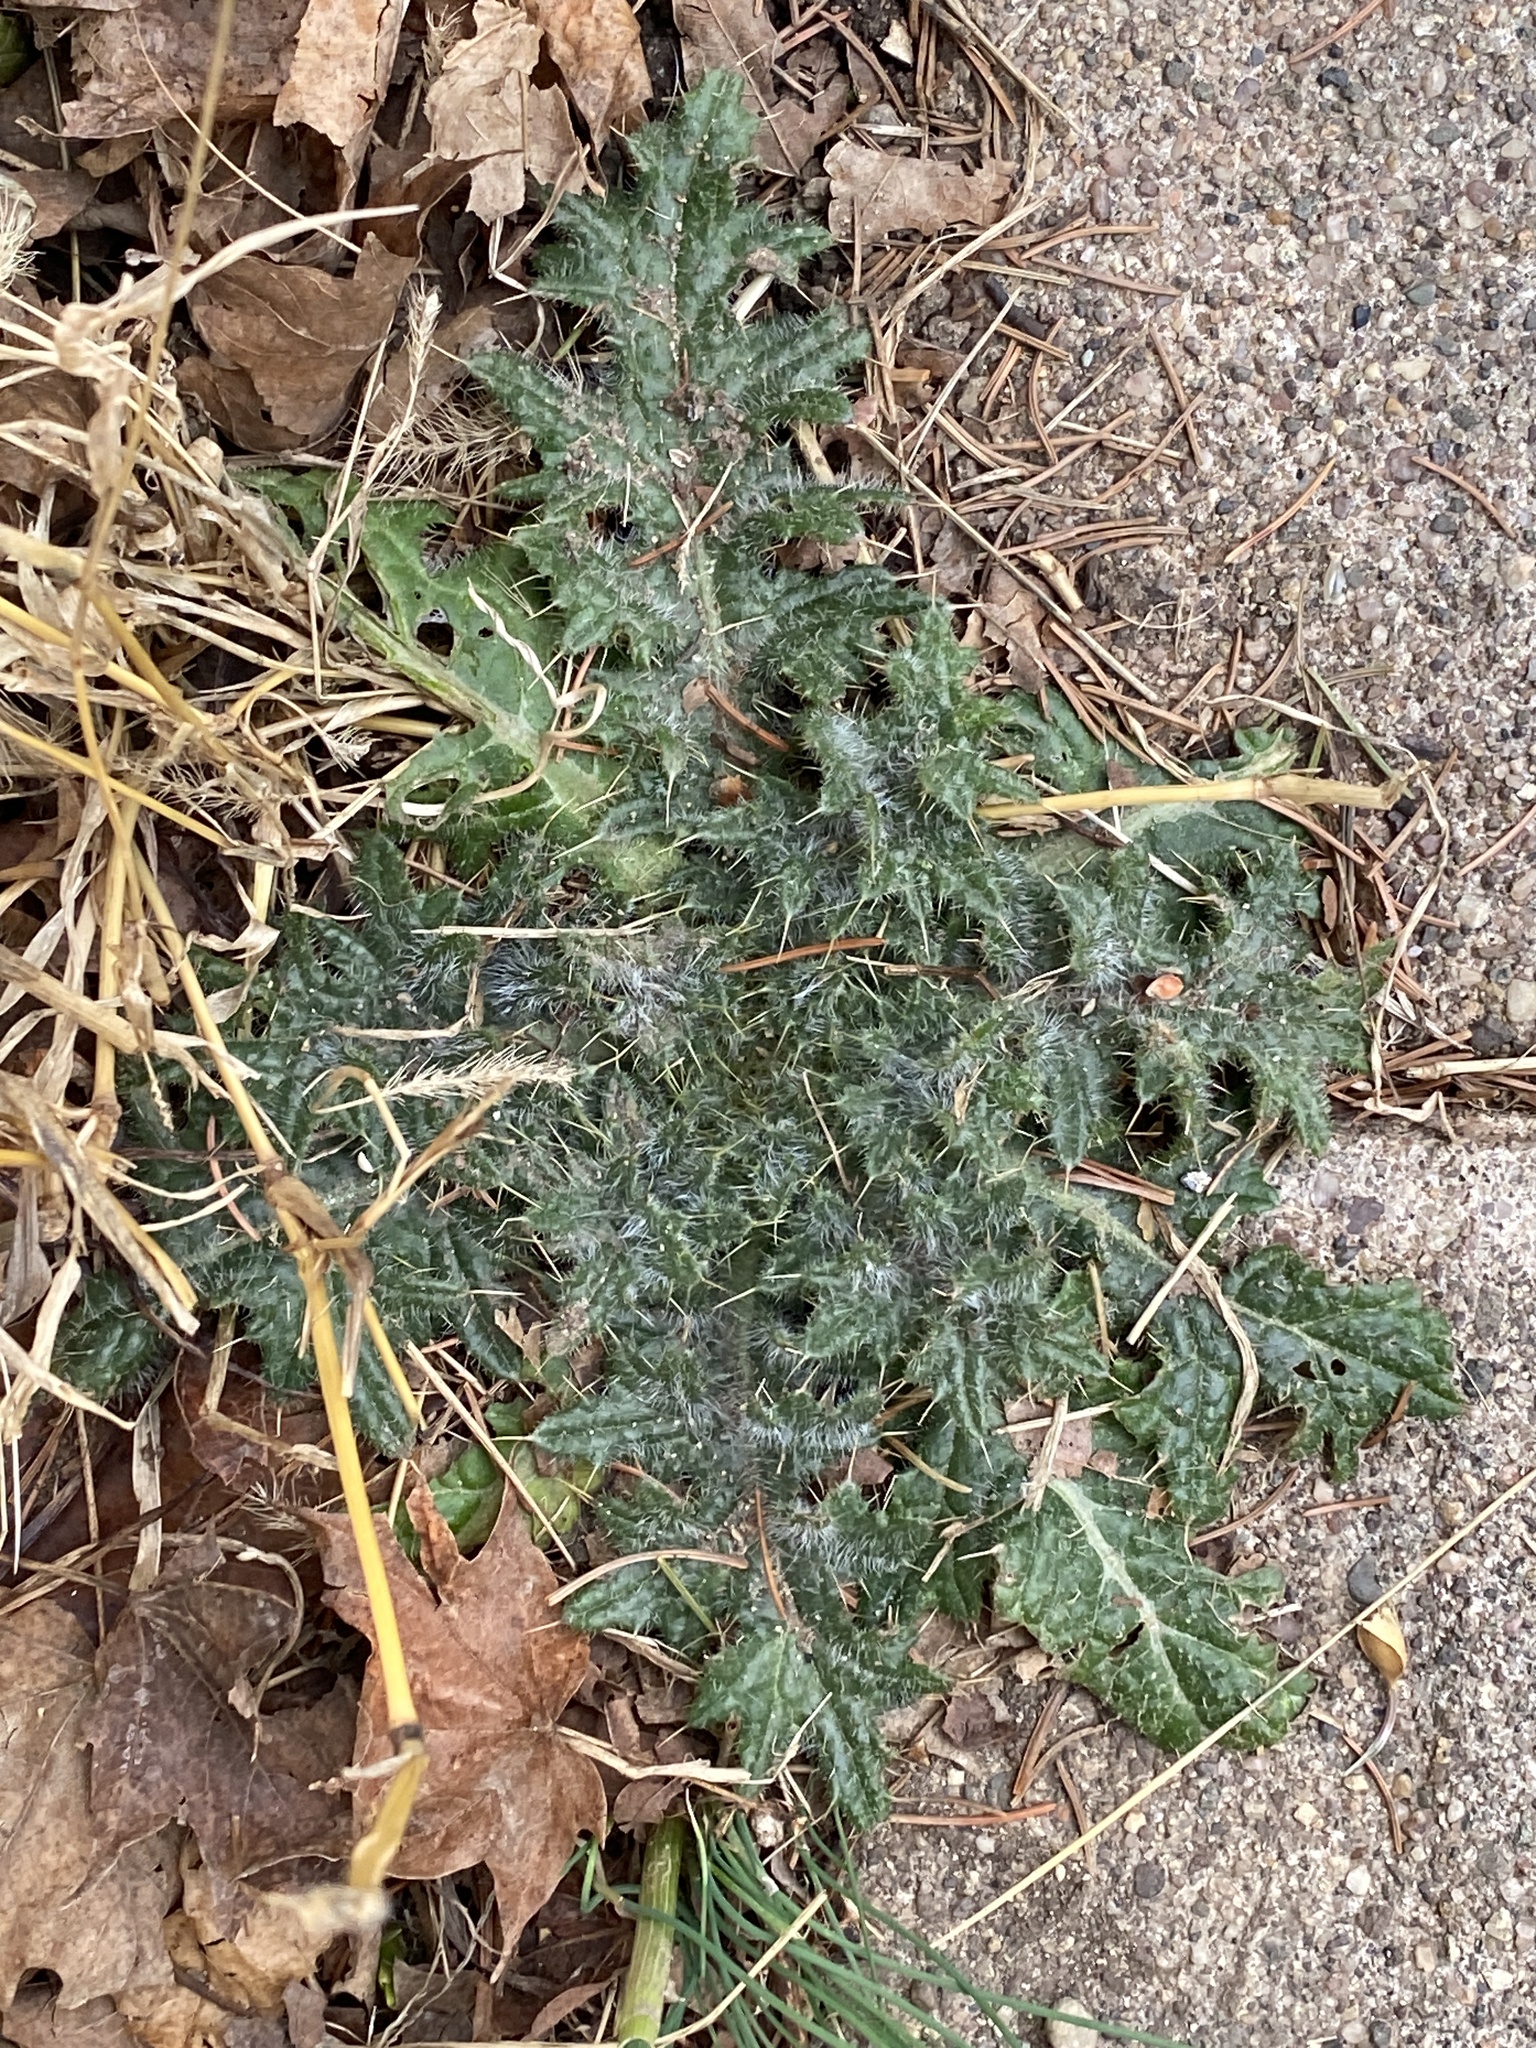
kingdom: Plantae
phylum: Tracheophyta
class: Magnoliopsida
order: Asterales
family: Asteraceae
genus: Cirsium
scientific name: Cirsium vulgare
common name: Bull thistle
